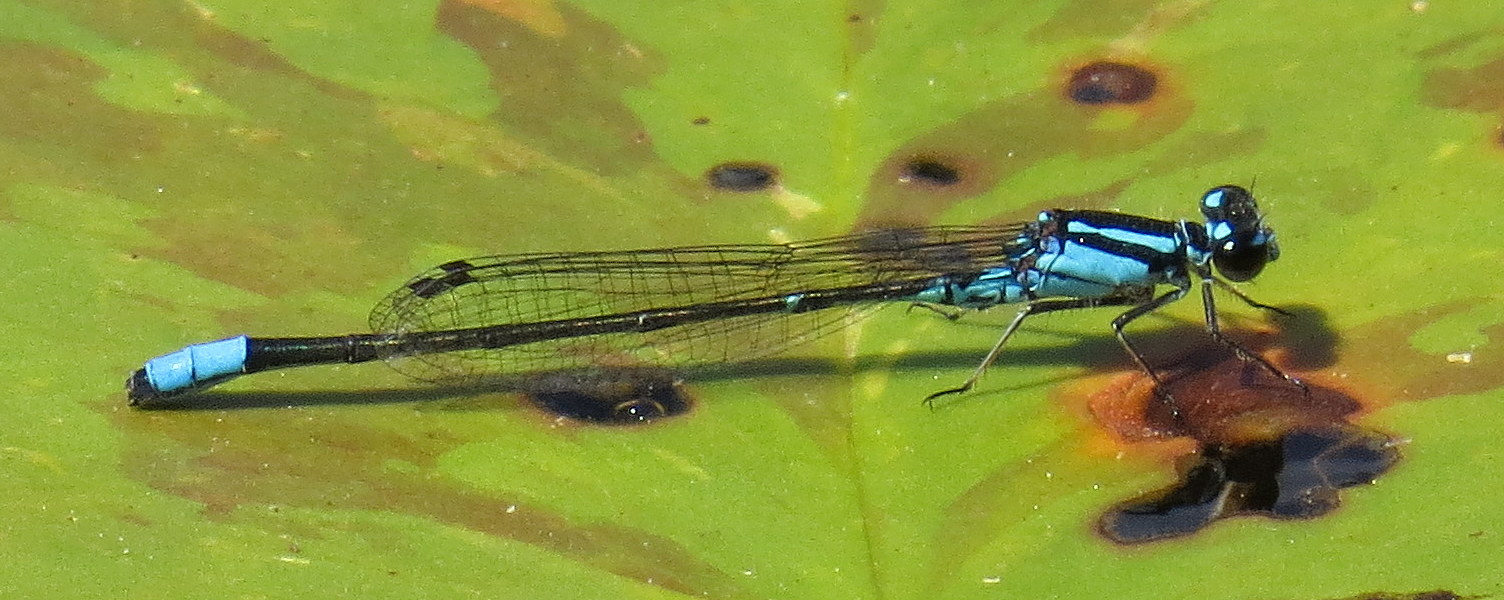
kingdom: Animalia
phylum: Arthropoda
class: Insecta
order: Odonata
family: Coenagrionidae
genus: Enallagma
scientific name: Enallagma geminatum
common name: Skimming bluet
